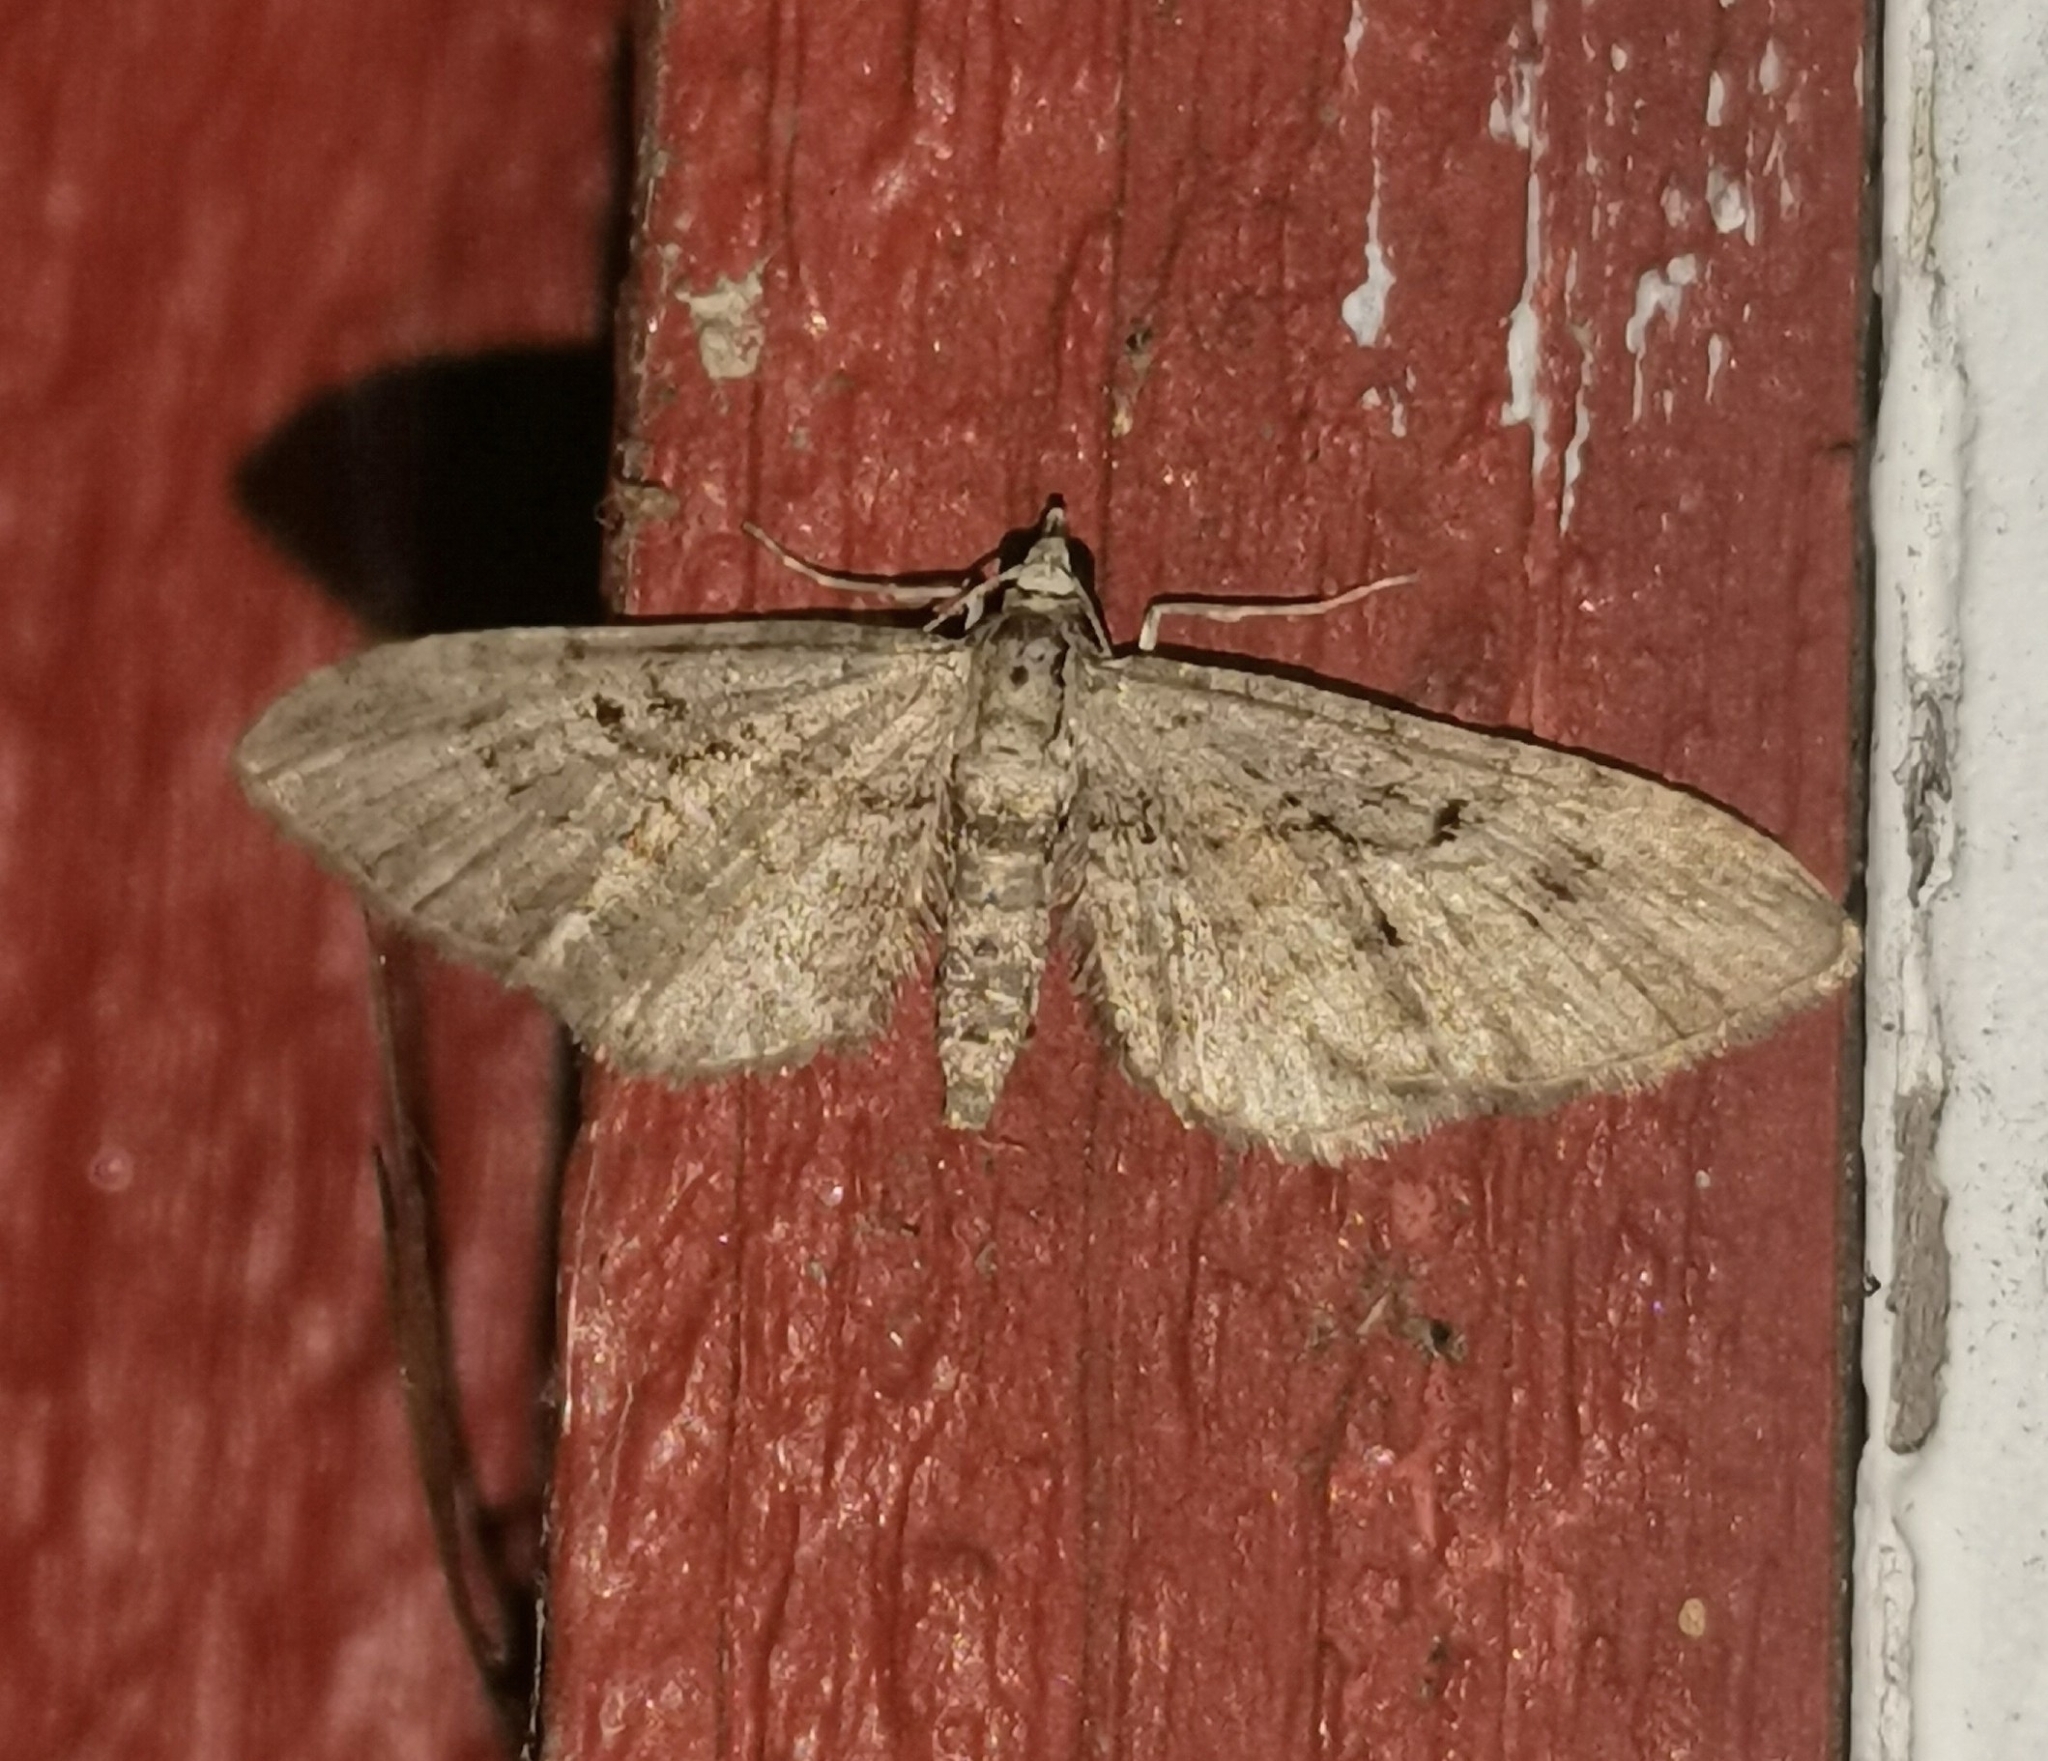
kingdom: Animalia
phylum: Arthropoda
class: Insecta
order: Lepidoptera
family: Geometridae
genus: Eupithecia
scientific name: Eupithecia pusillata
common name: Juniper pug
